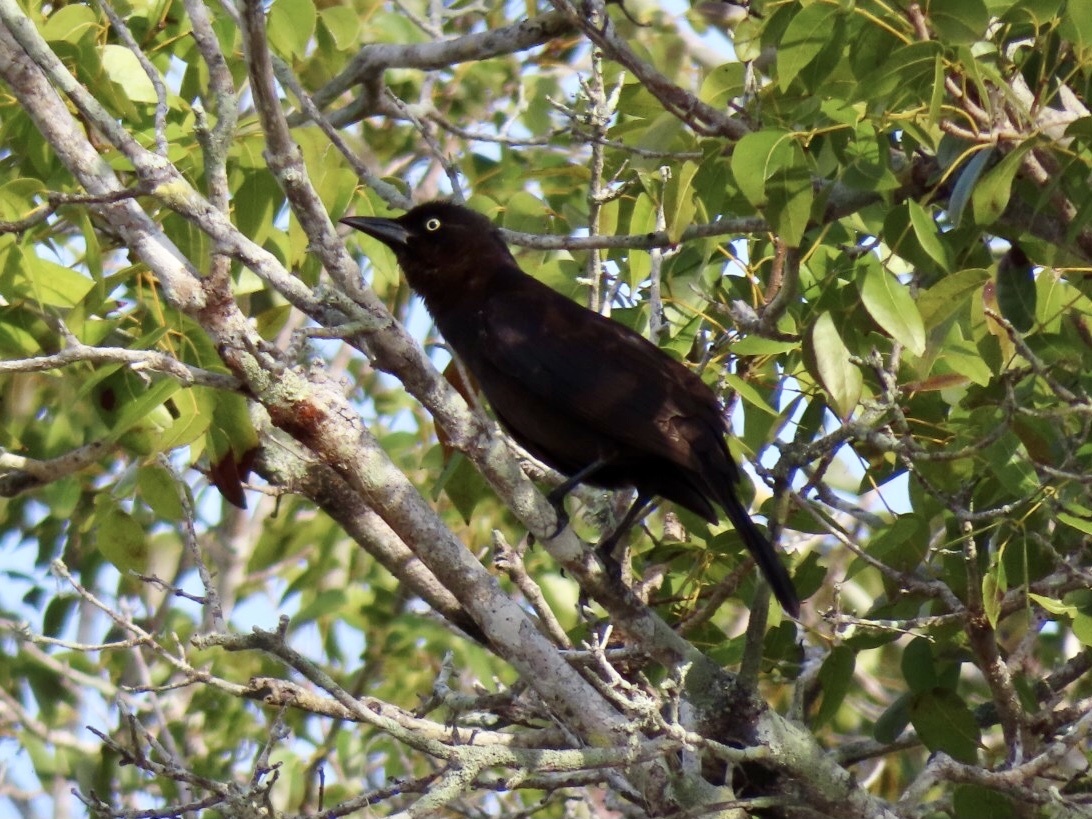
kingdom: Animalia
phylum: Chordata
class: Aves
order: Passeriformes
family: Icteridae
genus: Quiscalus
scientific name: Quiscalus quiscula
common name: Common grackle
